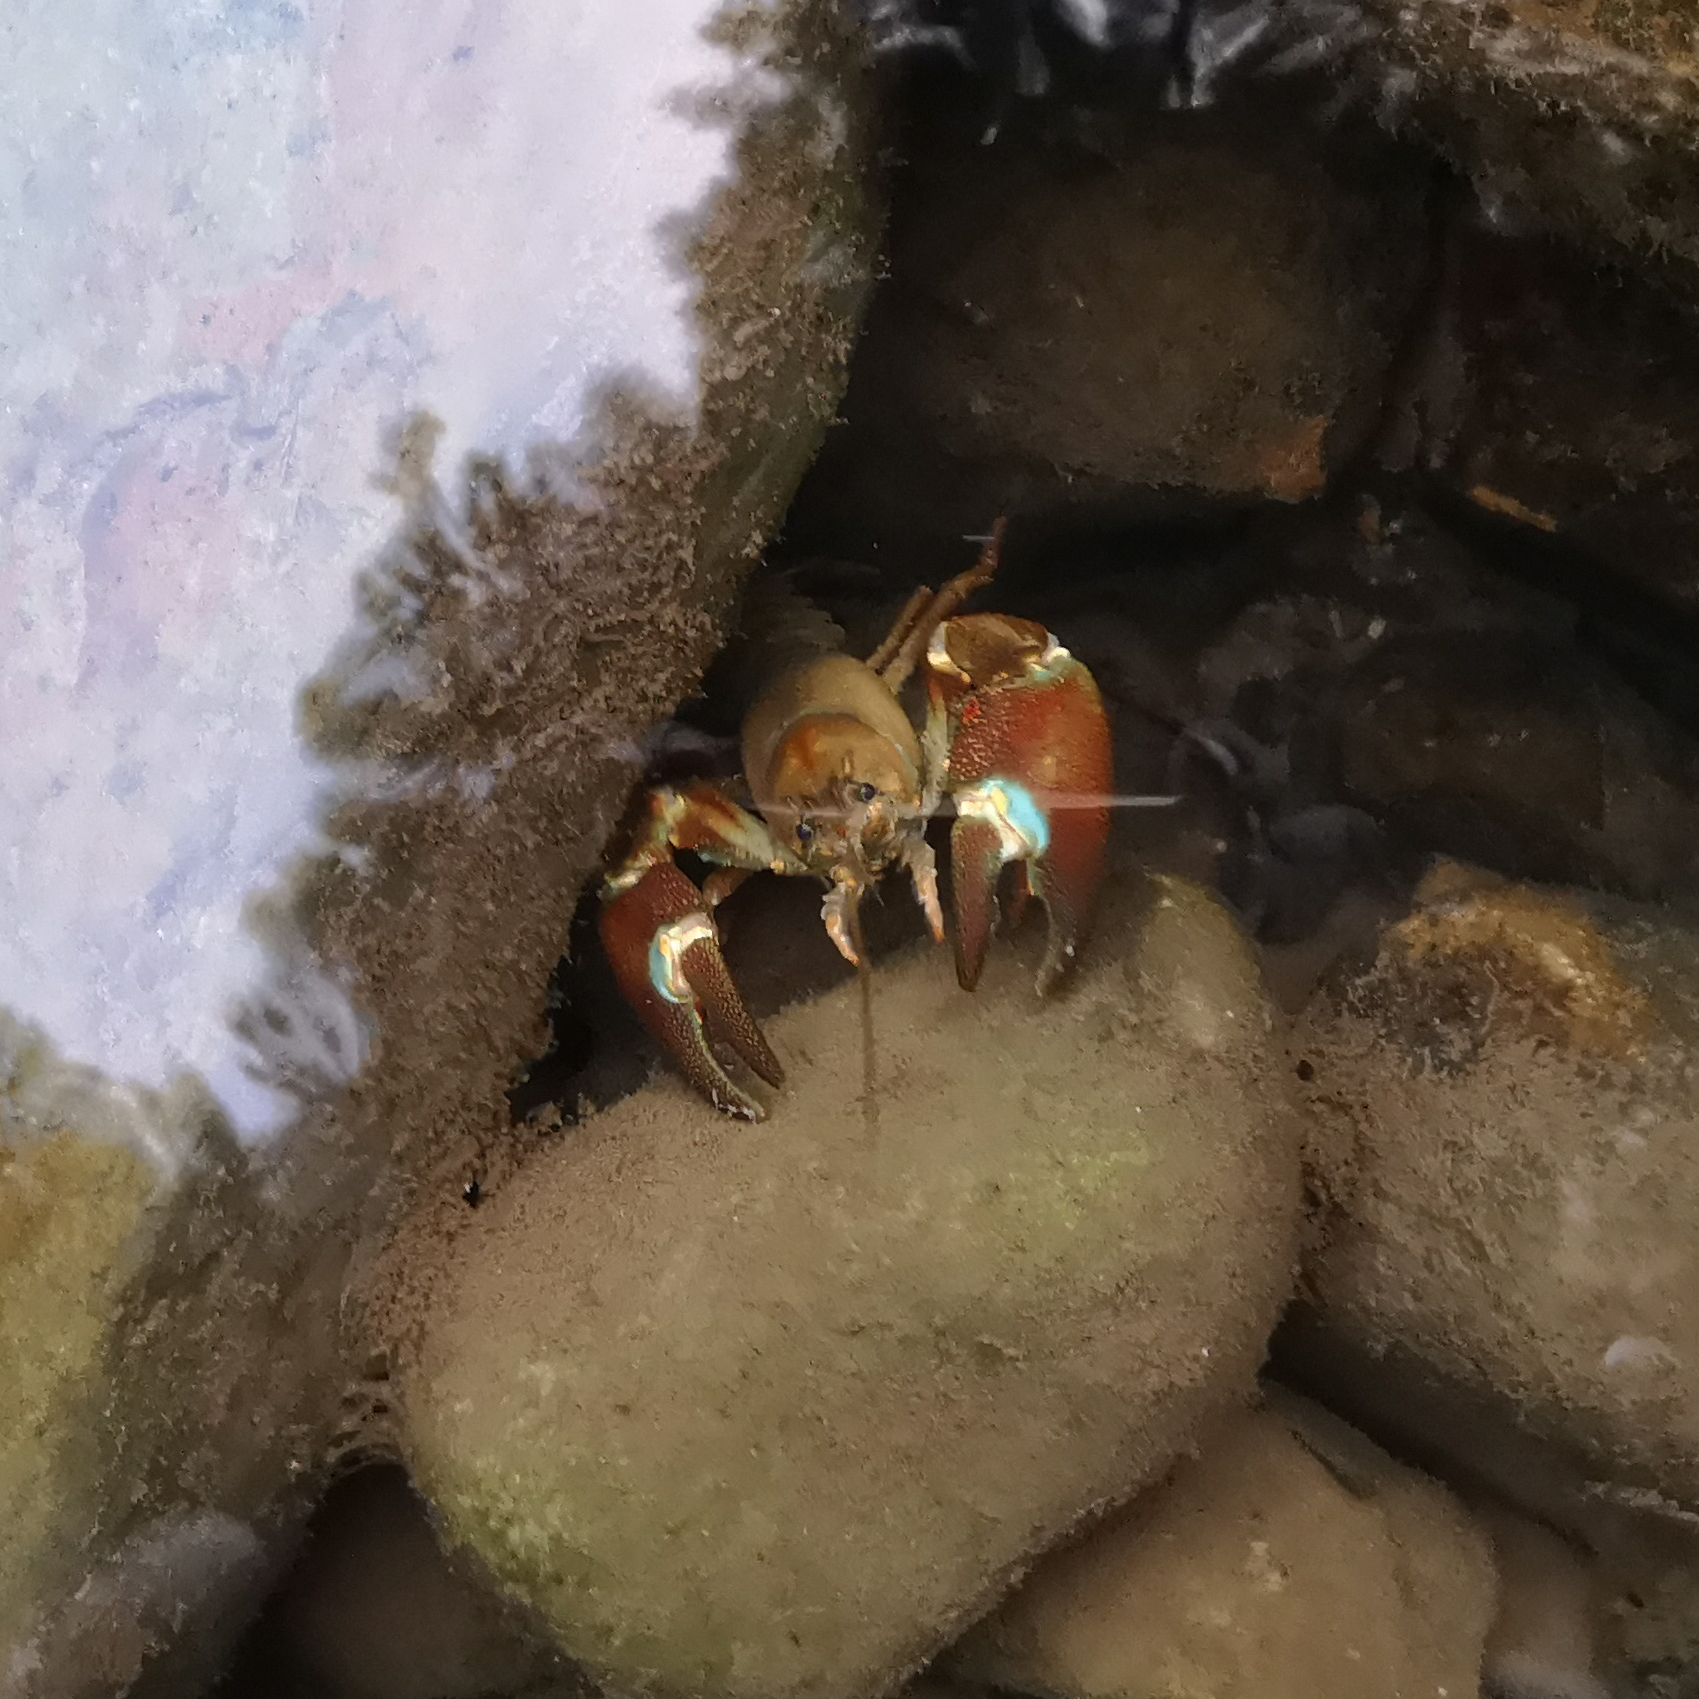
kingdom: Animalia
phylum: Arthropoda
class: Malacostraca
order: Decapoda
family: Astacidae
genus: Pacifastacus
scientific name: Pacifastacus leniusculus
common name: Signal crayfish
